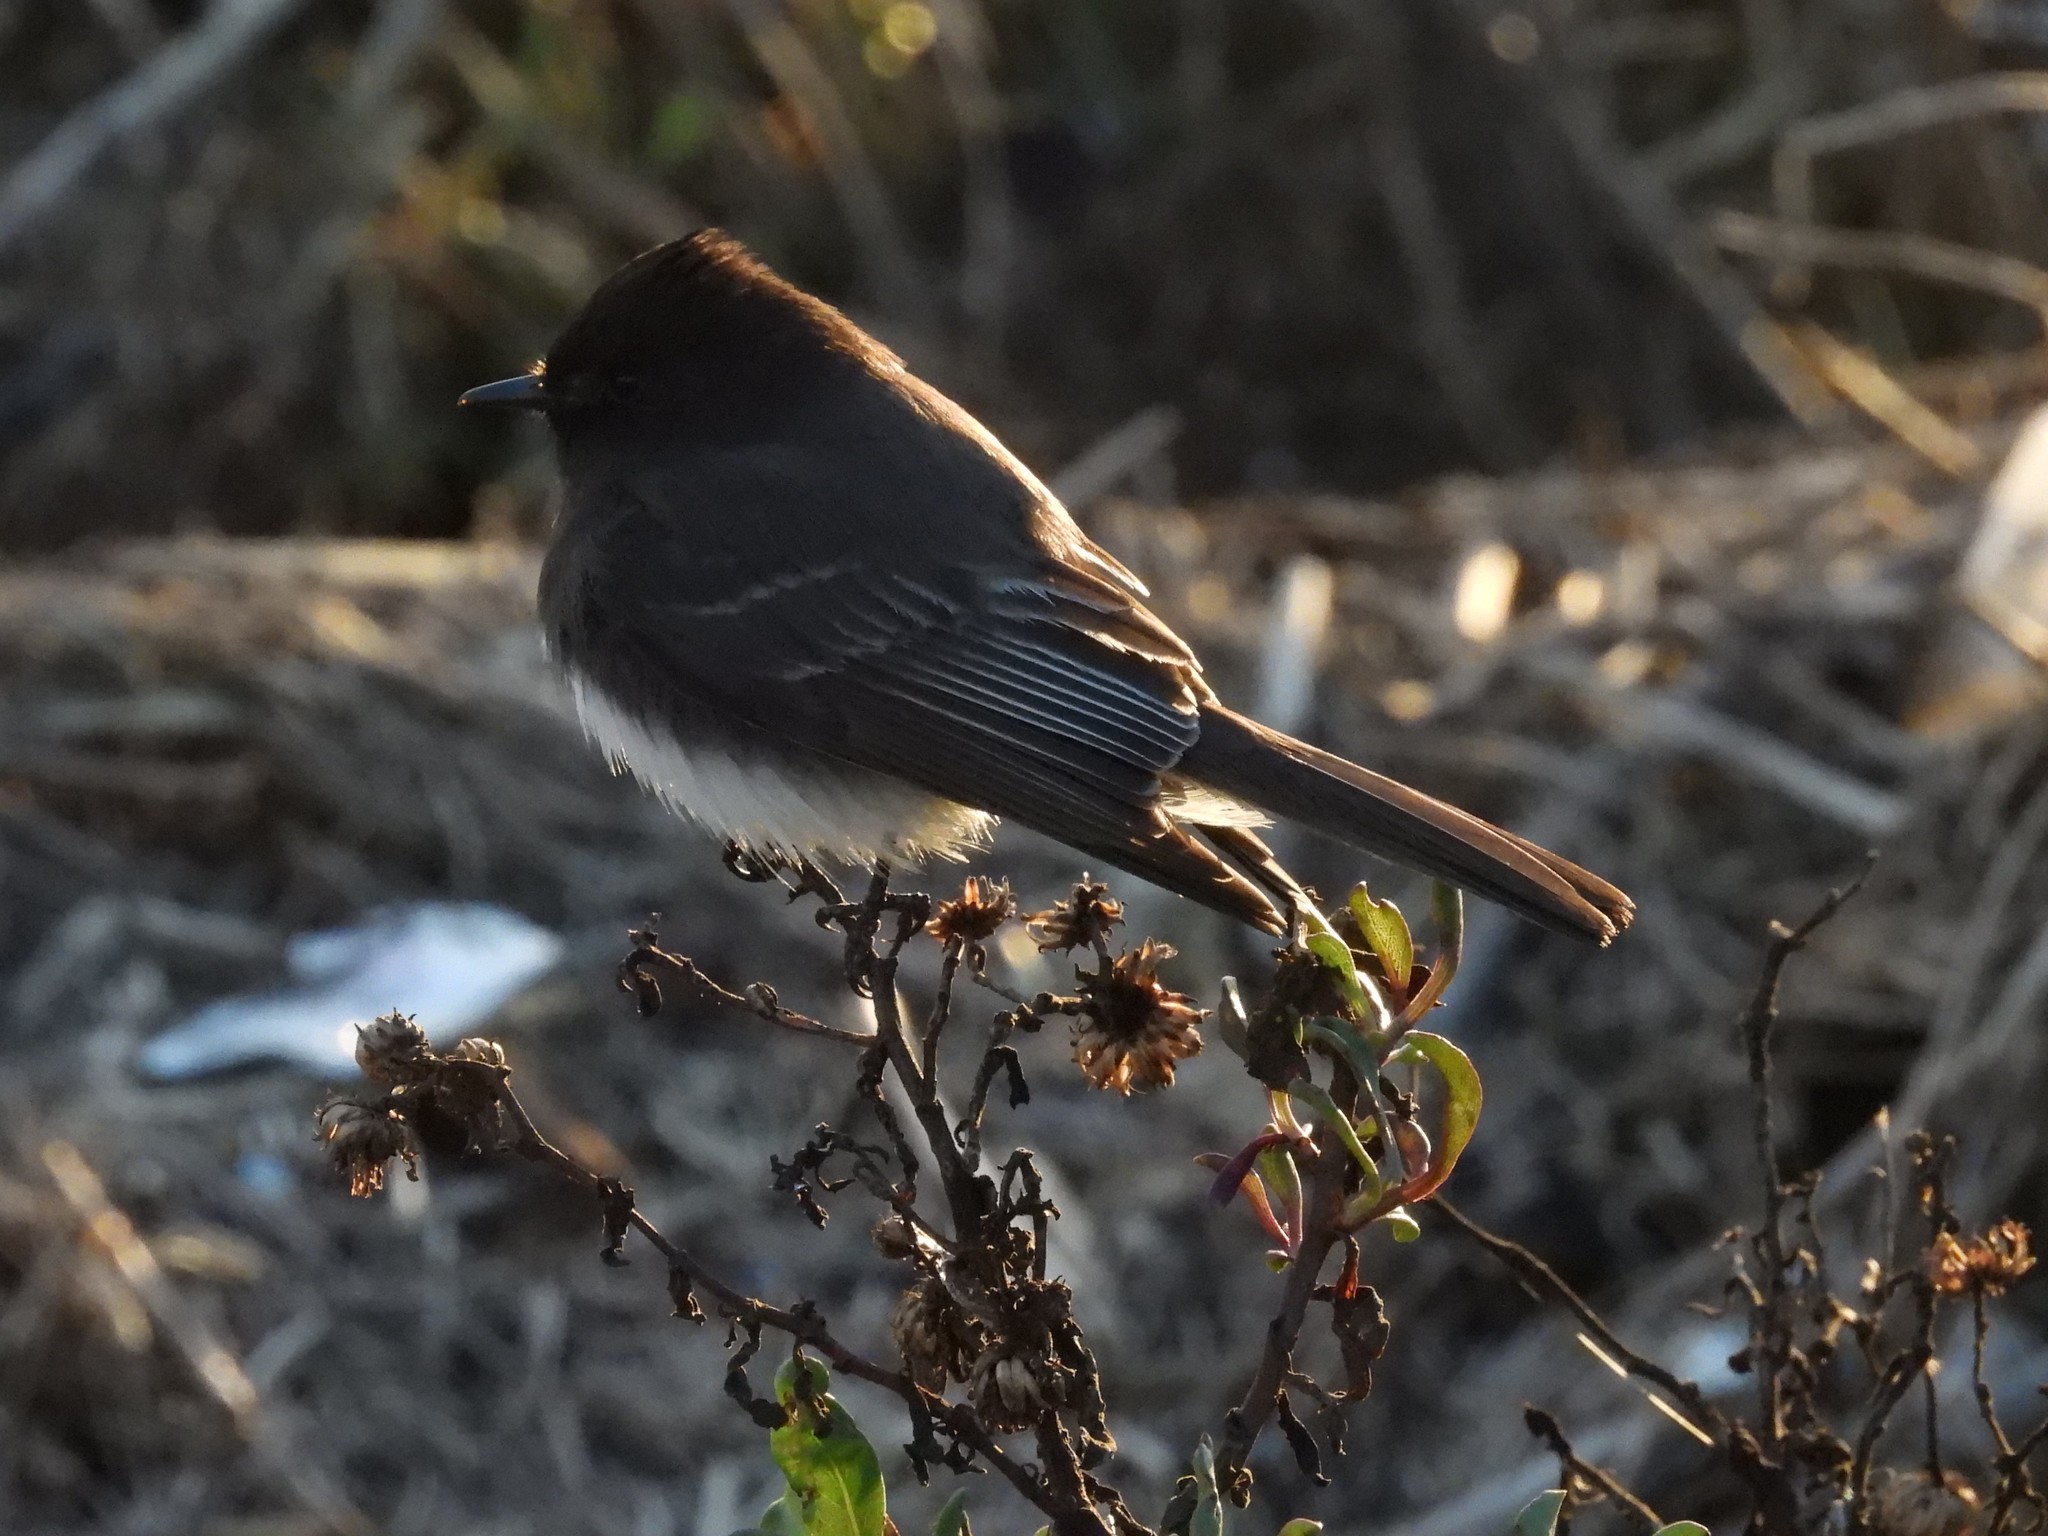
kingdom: Animalia
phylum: Chordata
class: Aves
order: Passeriformes
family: Tyrannidae
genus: Sayornis
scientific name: Sayornis nigricans
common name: Black phoebe
